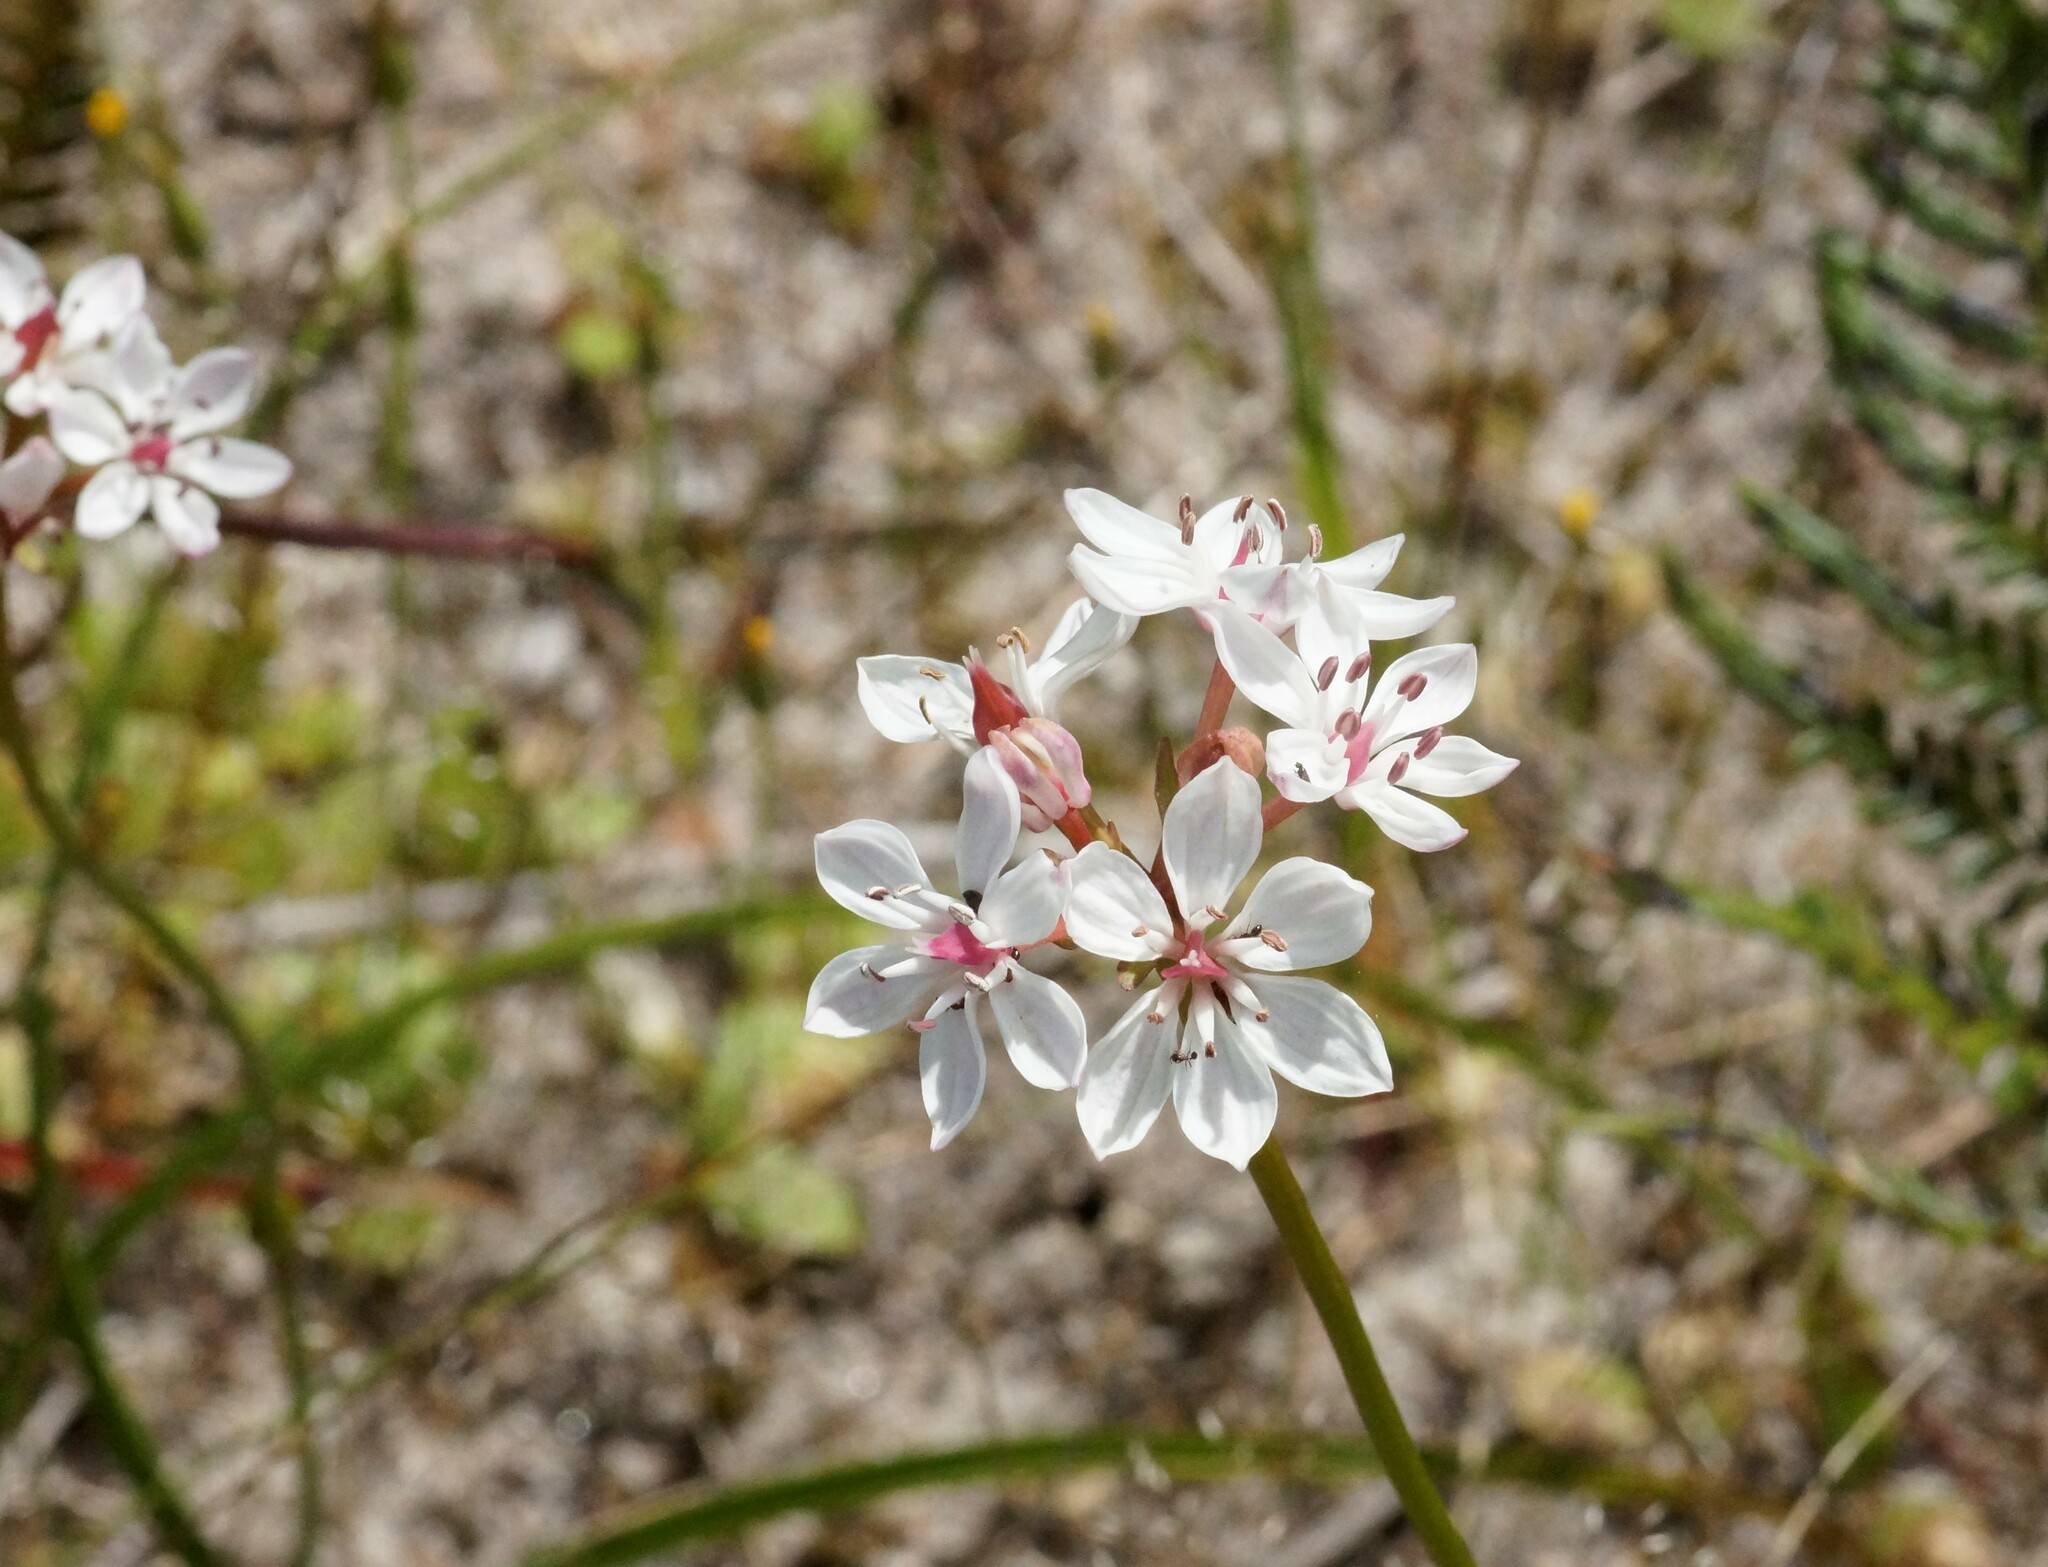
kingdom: Plantae
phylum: Tracheophyta
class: Liliopsida
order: Liliales
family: Colchicaceae
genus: Burchardia
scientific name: Burchardia umbellata
